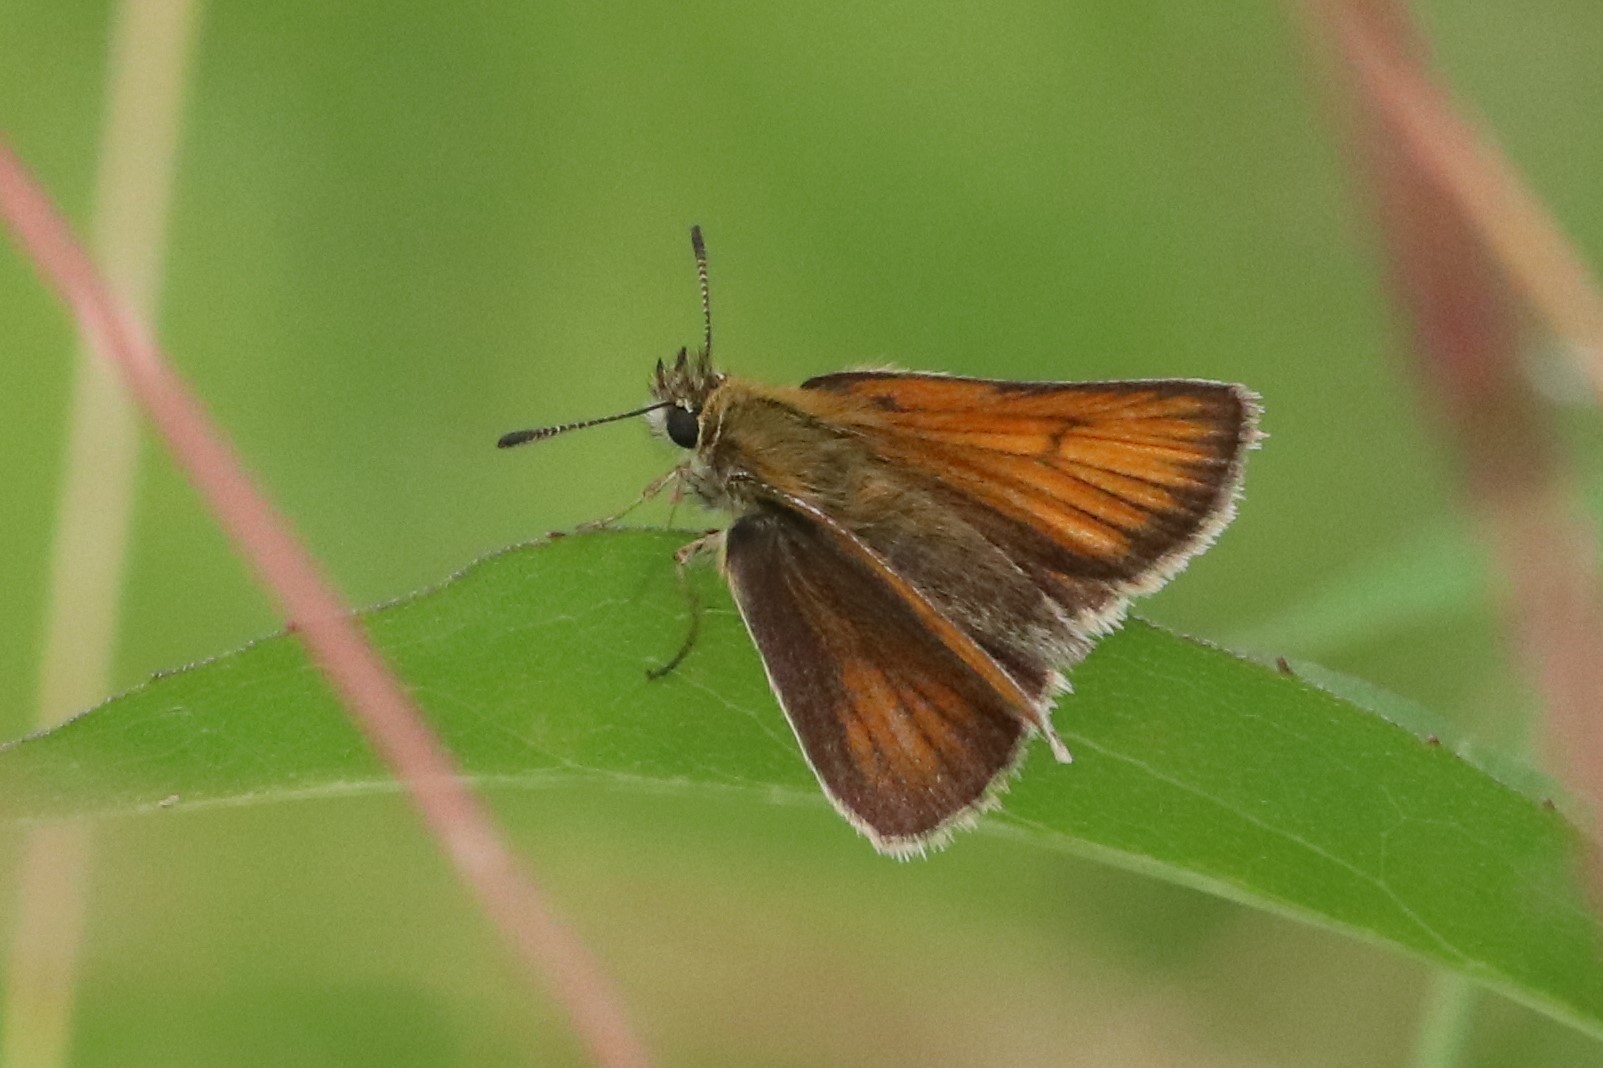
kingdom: Animalia
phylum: Arthropoda
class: Insecta
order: Lepidoptera
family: Hesperiidae
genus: Thymelicus
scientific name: Thymelicus lineola
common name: Essex skipper
